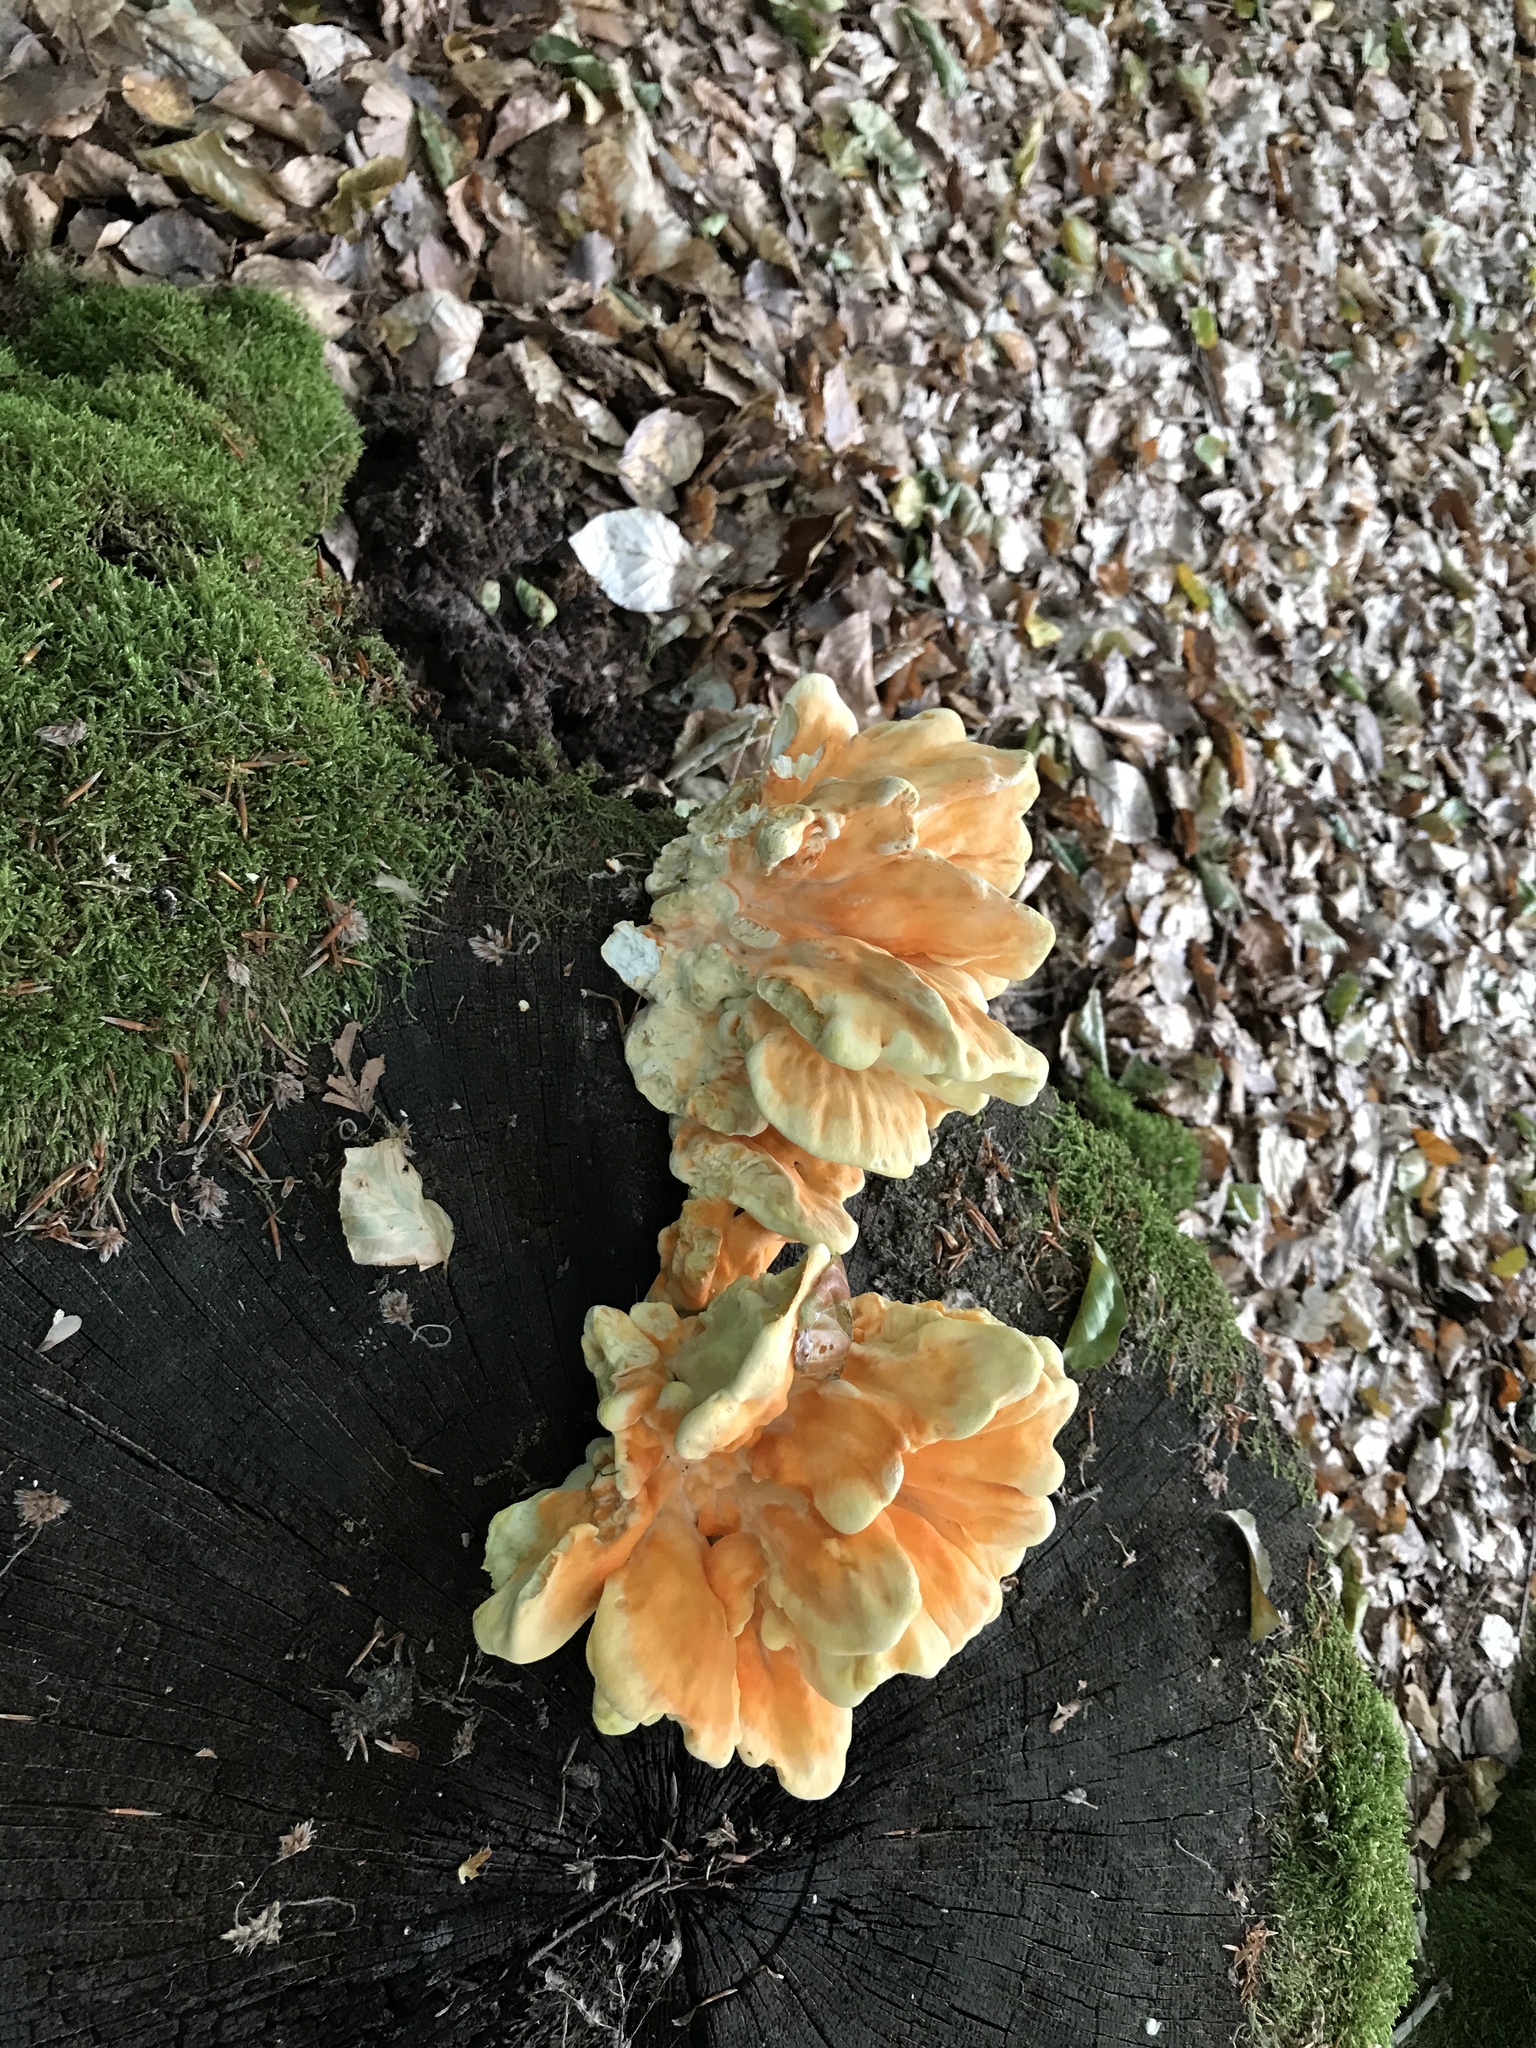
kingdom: Fungi
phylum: Basidiomycota
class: Agaricomycetes
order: Polyporales
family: Laetiporaceae
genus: Laetiporus
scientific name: Laetiporus sulphureus
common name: Chicken of the woods
